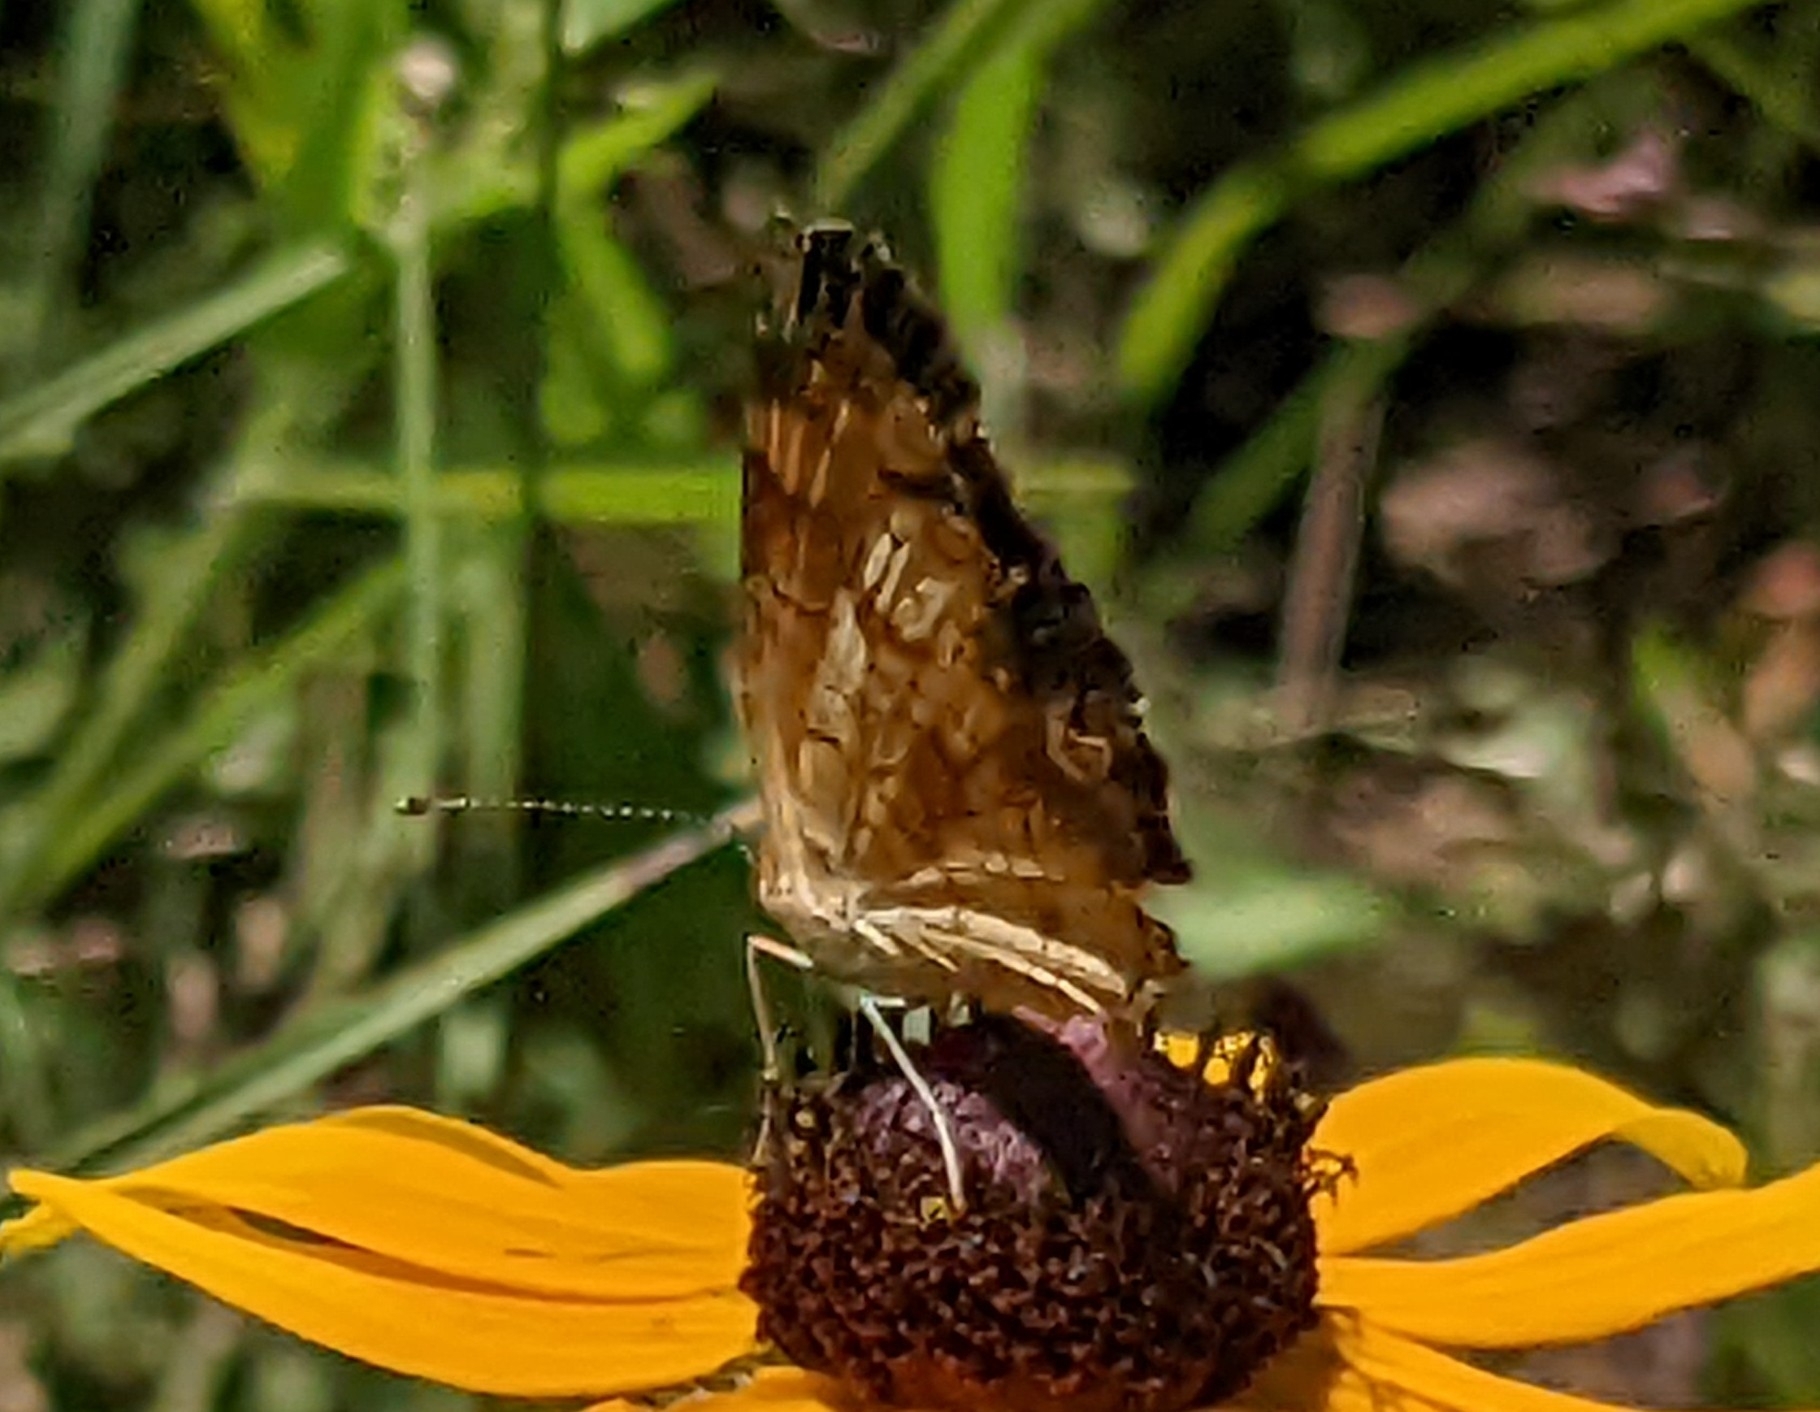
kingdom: Animalia
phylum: Arthropoda
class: Insecta
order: Lepidoptera
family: Nymphalidae
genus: Phyciodes
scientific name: Phyciodes tharos
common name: Pearl crescent
